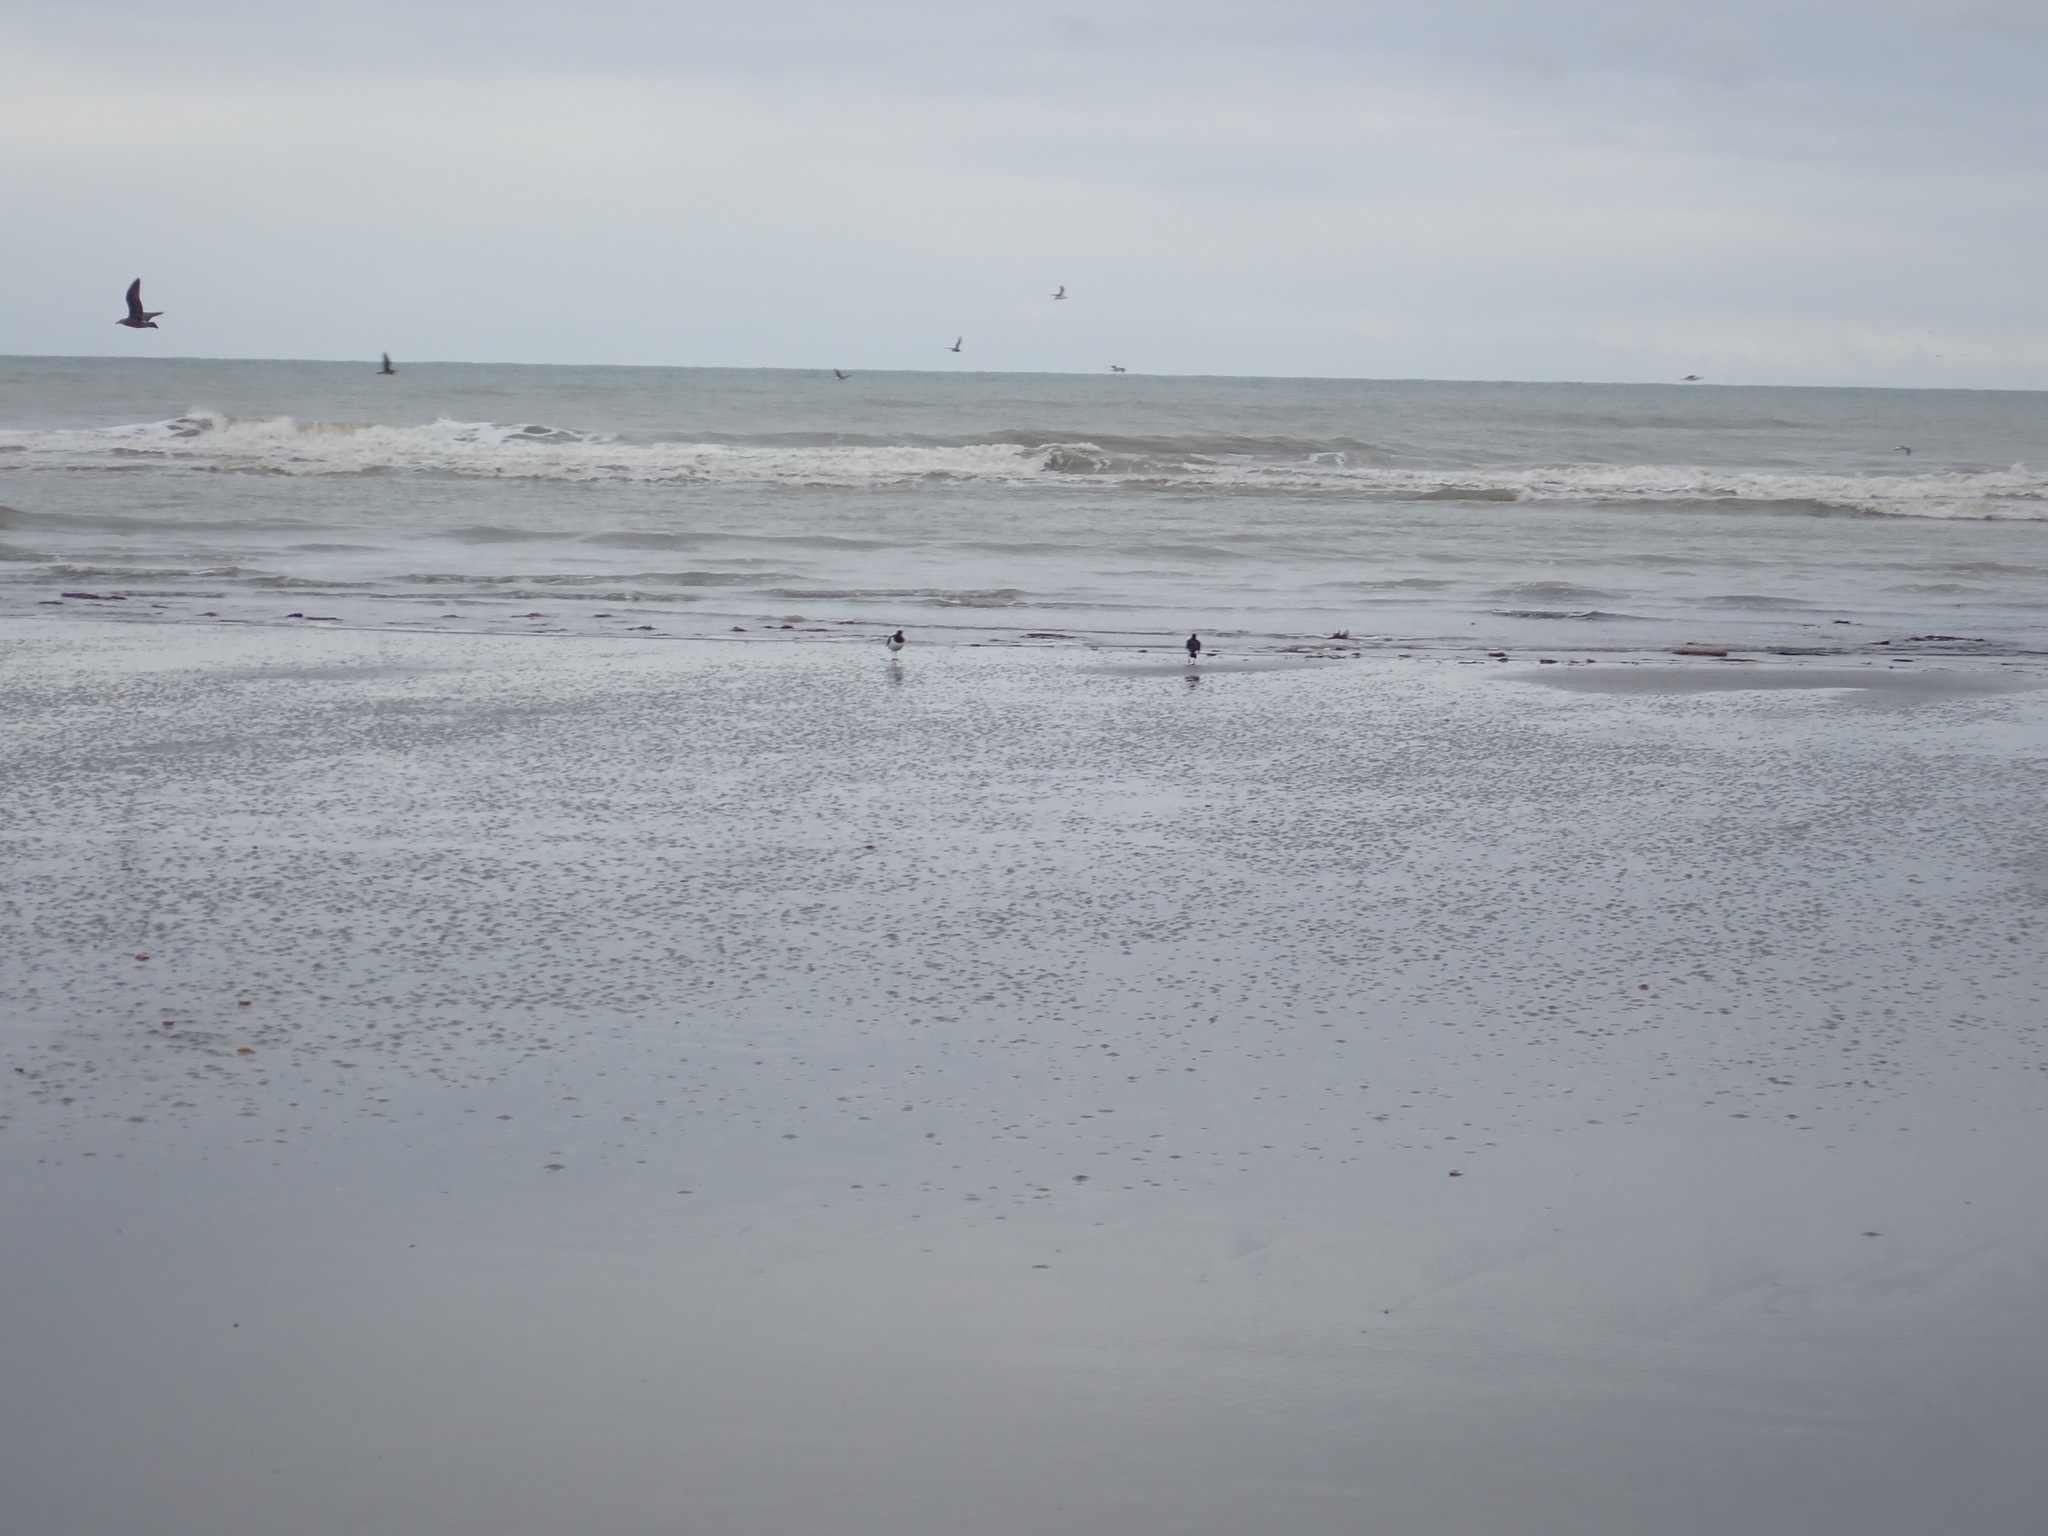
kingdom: Animalia
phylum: Chordata
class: Aves
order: Charadriiformes
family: Haematopodidae
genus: Haematopus
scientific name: Haematopus finschi
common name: South island oystercatcher
